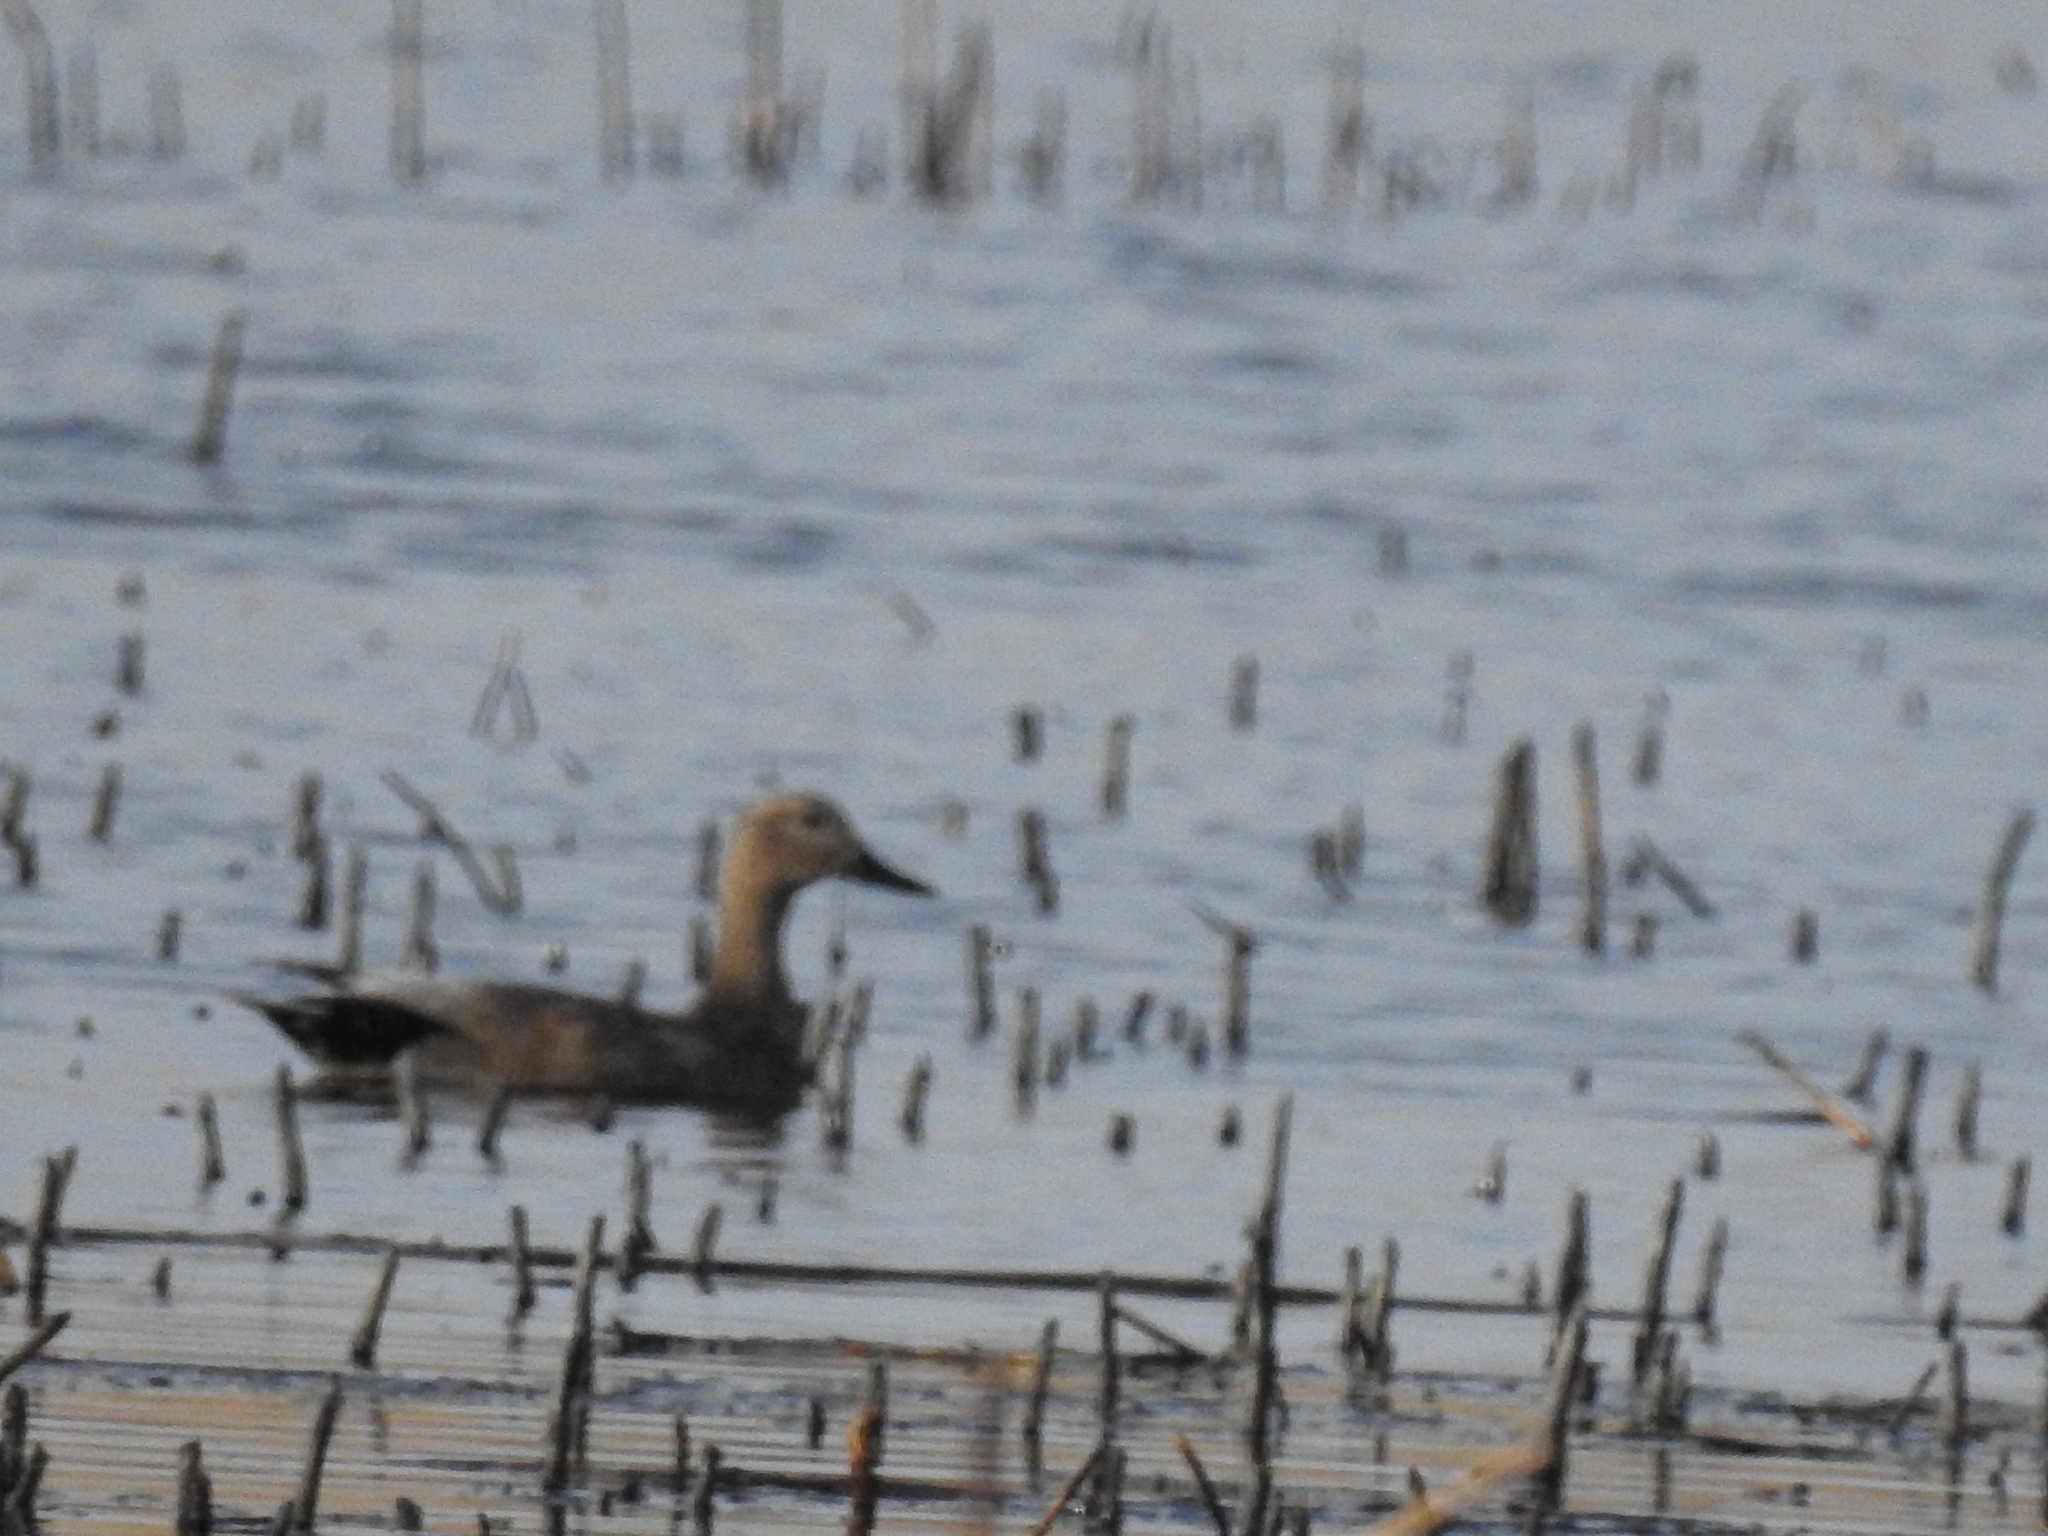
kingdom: Animalia
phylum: Chordata
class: Aves
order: Anseriformes
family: Anatidae
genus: Mareca
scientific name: Mareca strepera
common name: Gadwall
